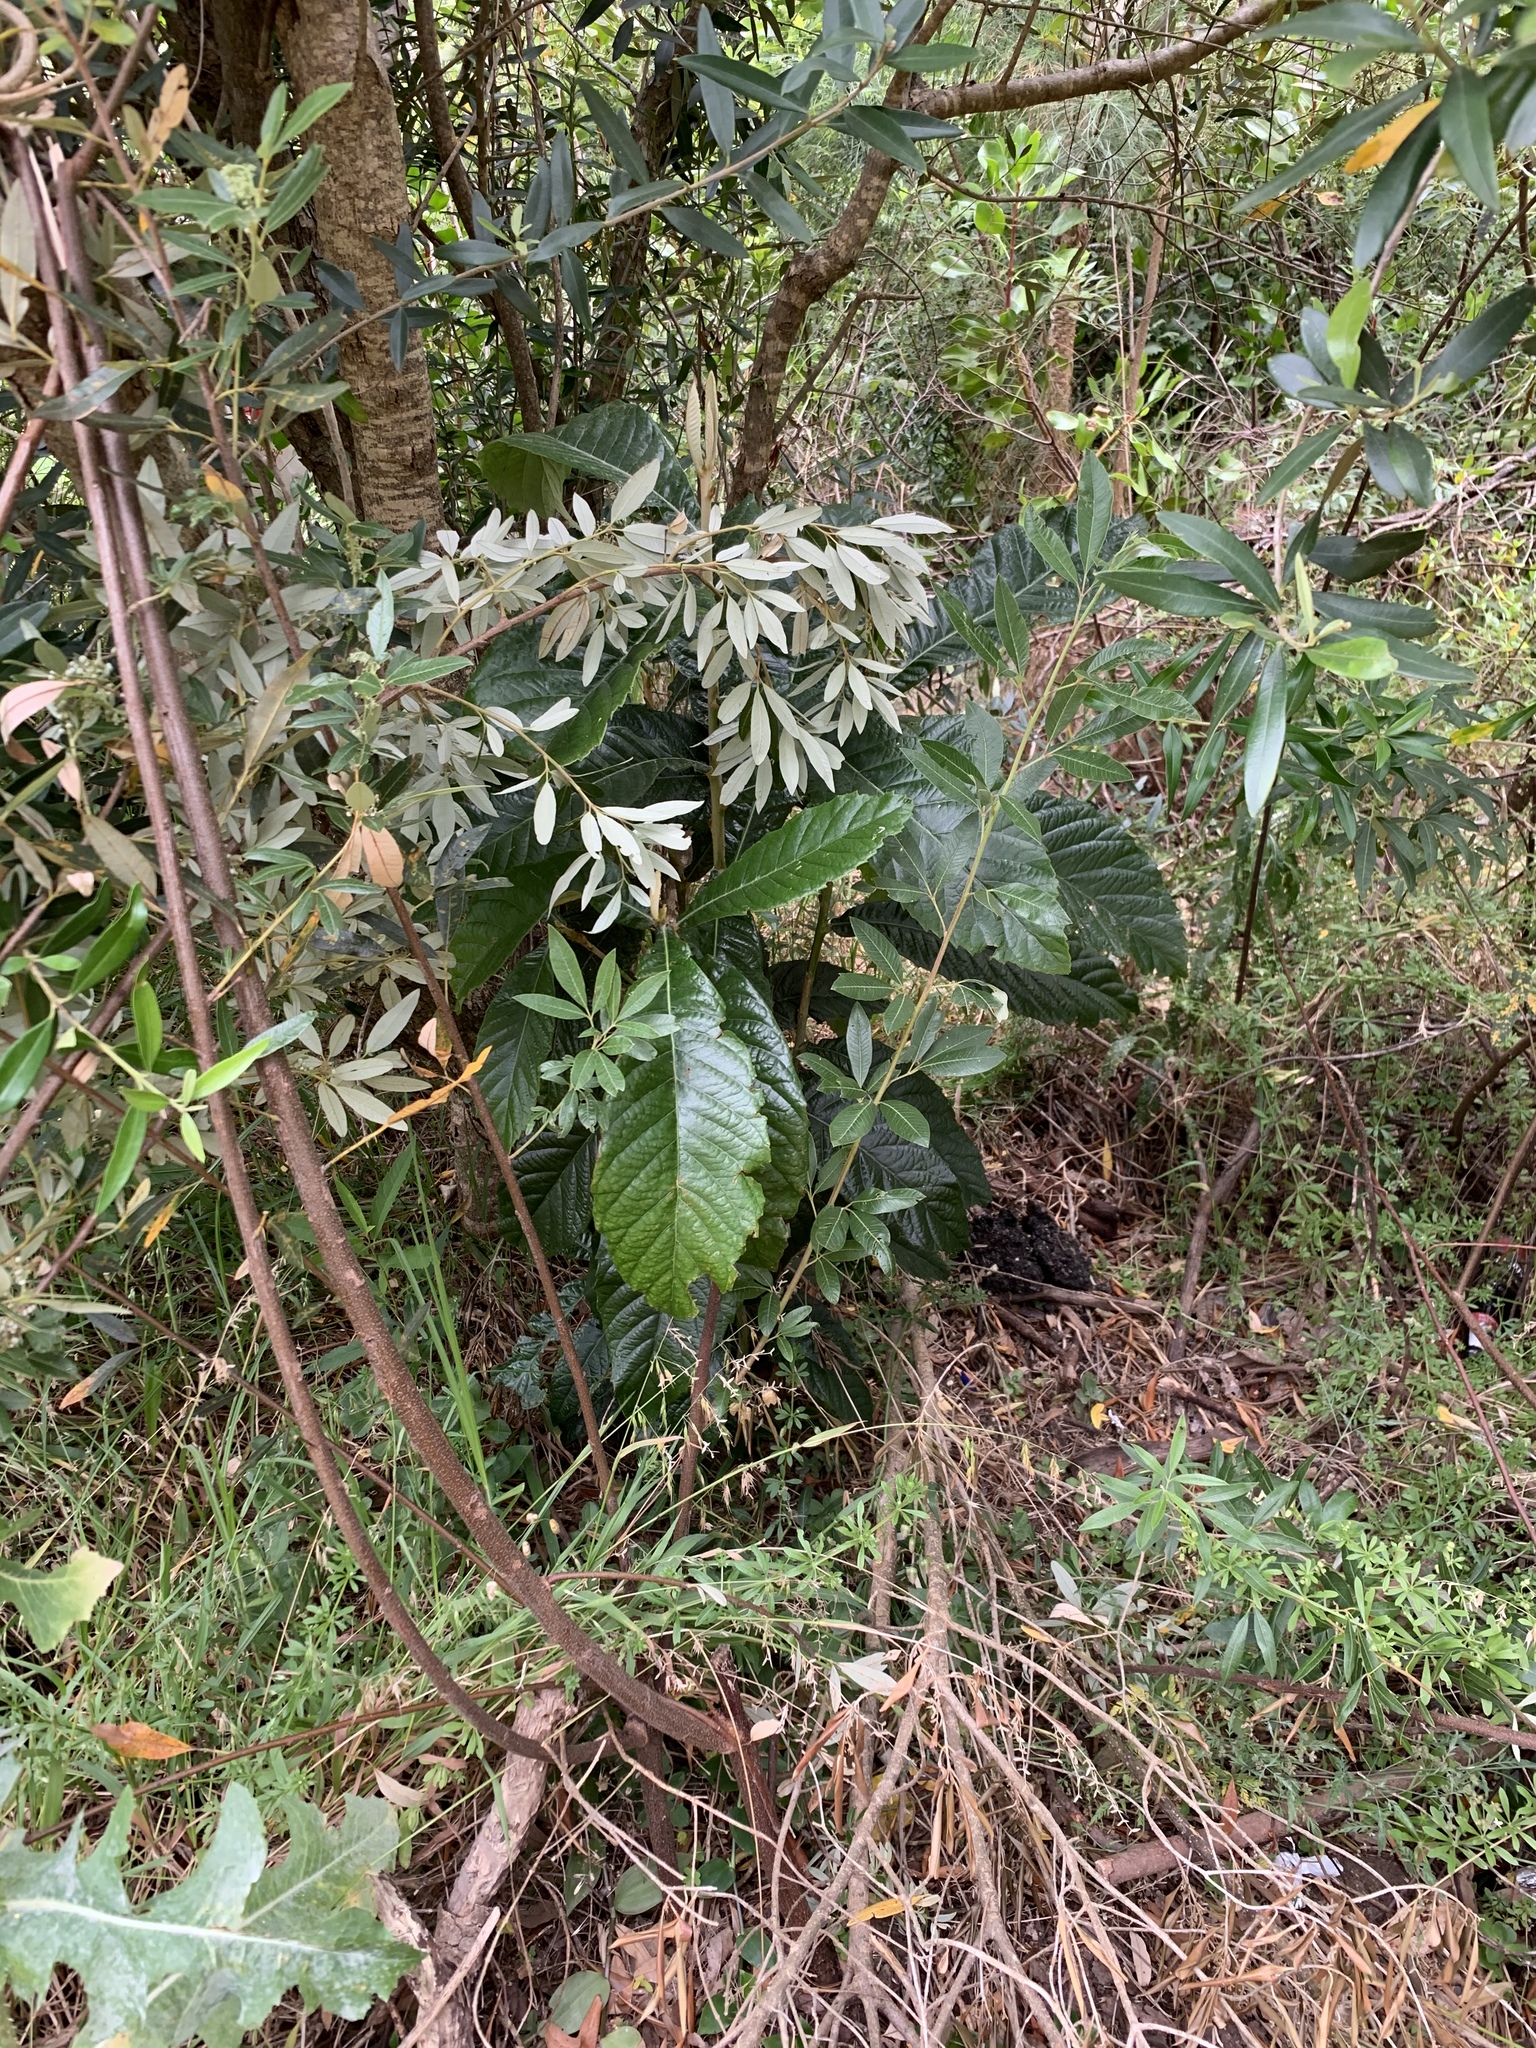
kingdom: Plantae
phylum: Tracheophyta
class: Magnoliopsida
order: Rosales
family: Rosaceae
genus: Rhaphiolepis
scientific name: Rhaphiolepis bibas
